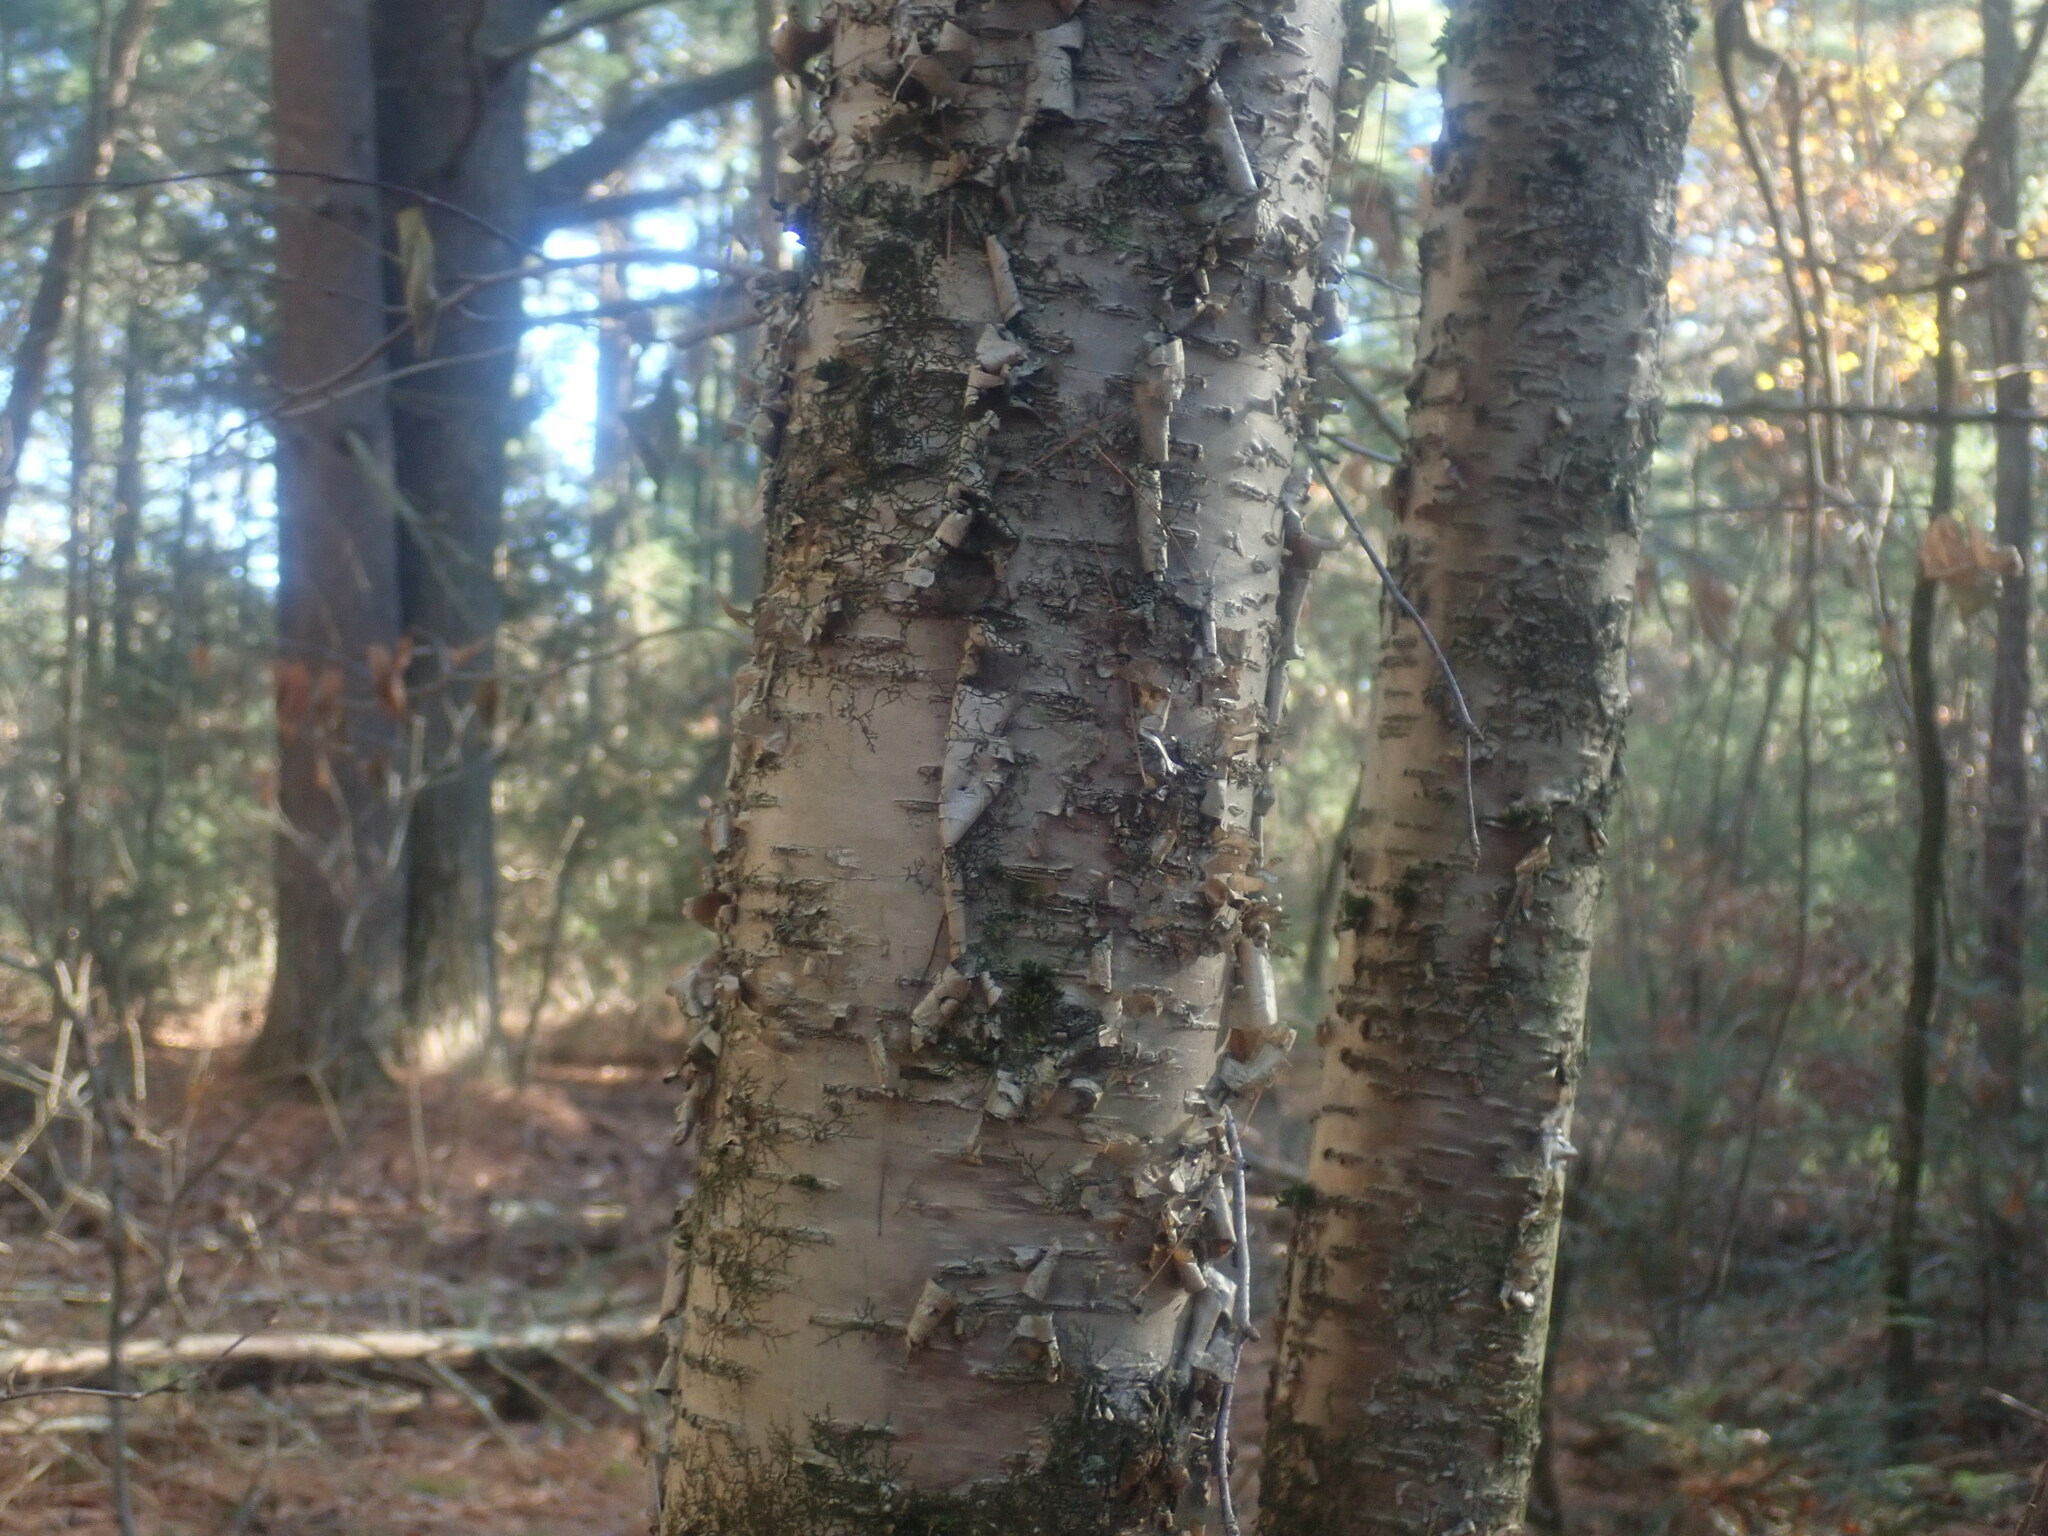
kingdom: Plantae
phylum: Tracheophyta
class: Magnoliopsida
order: Fagales
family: Betulaceae
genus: Betula
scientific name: Betula alleghaniensis
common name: Yellow birch
